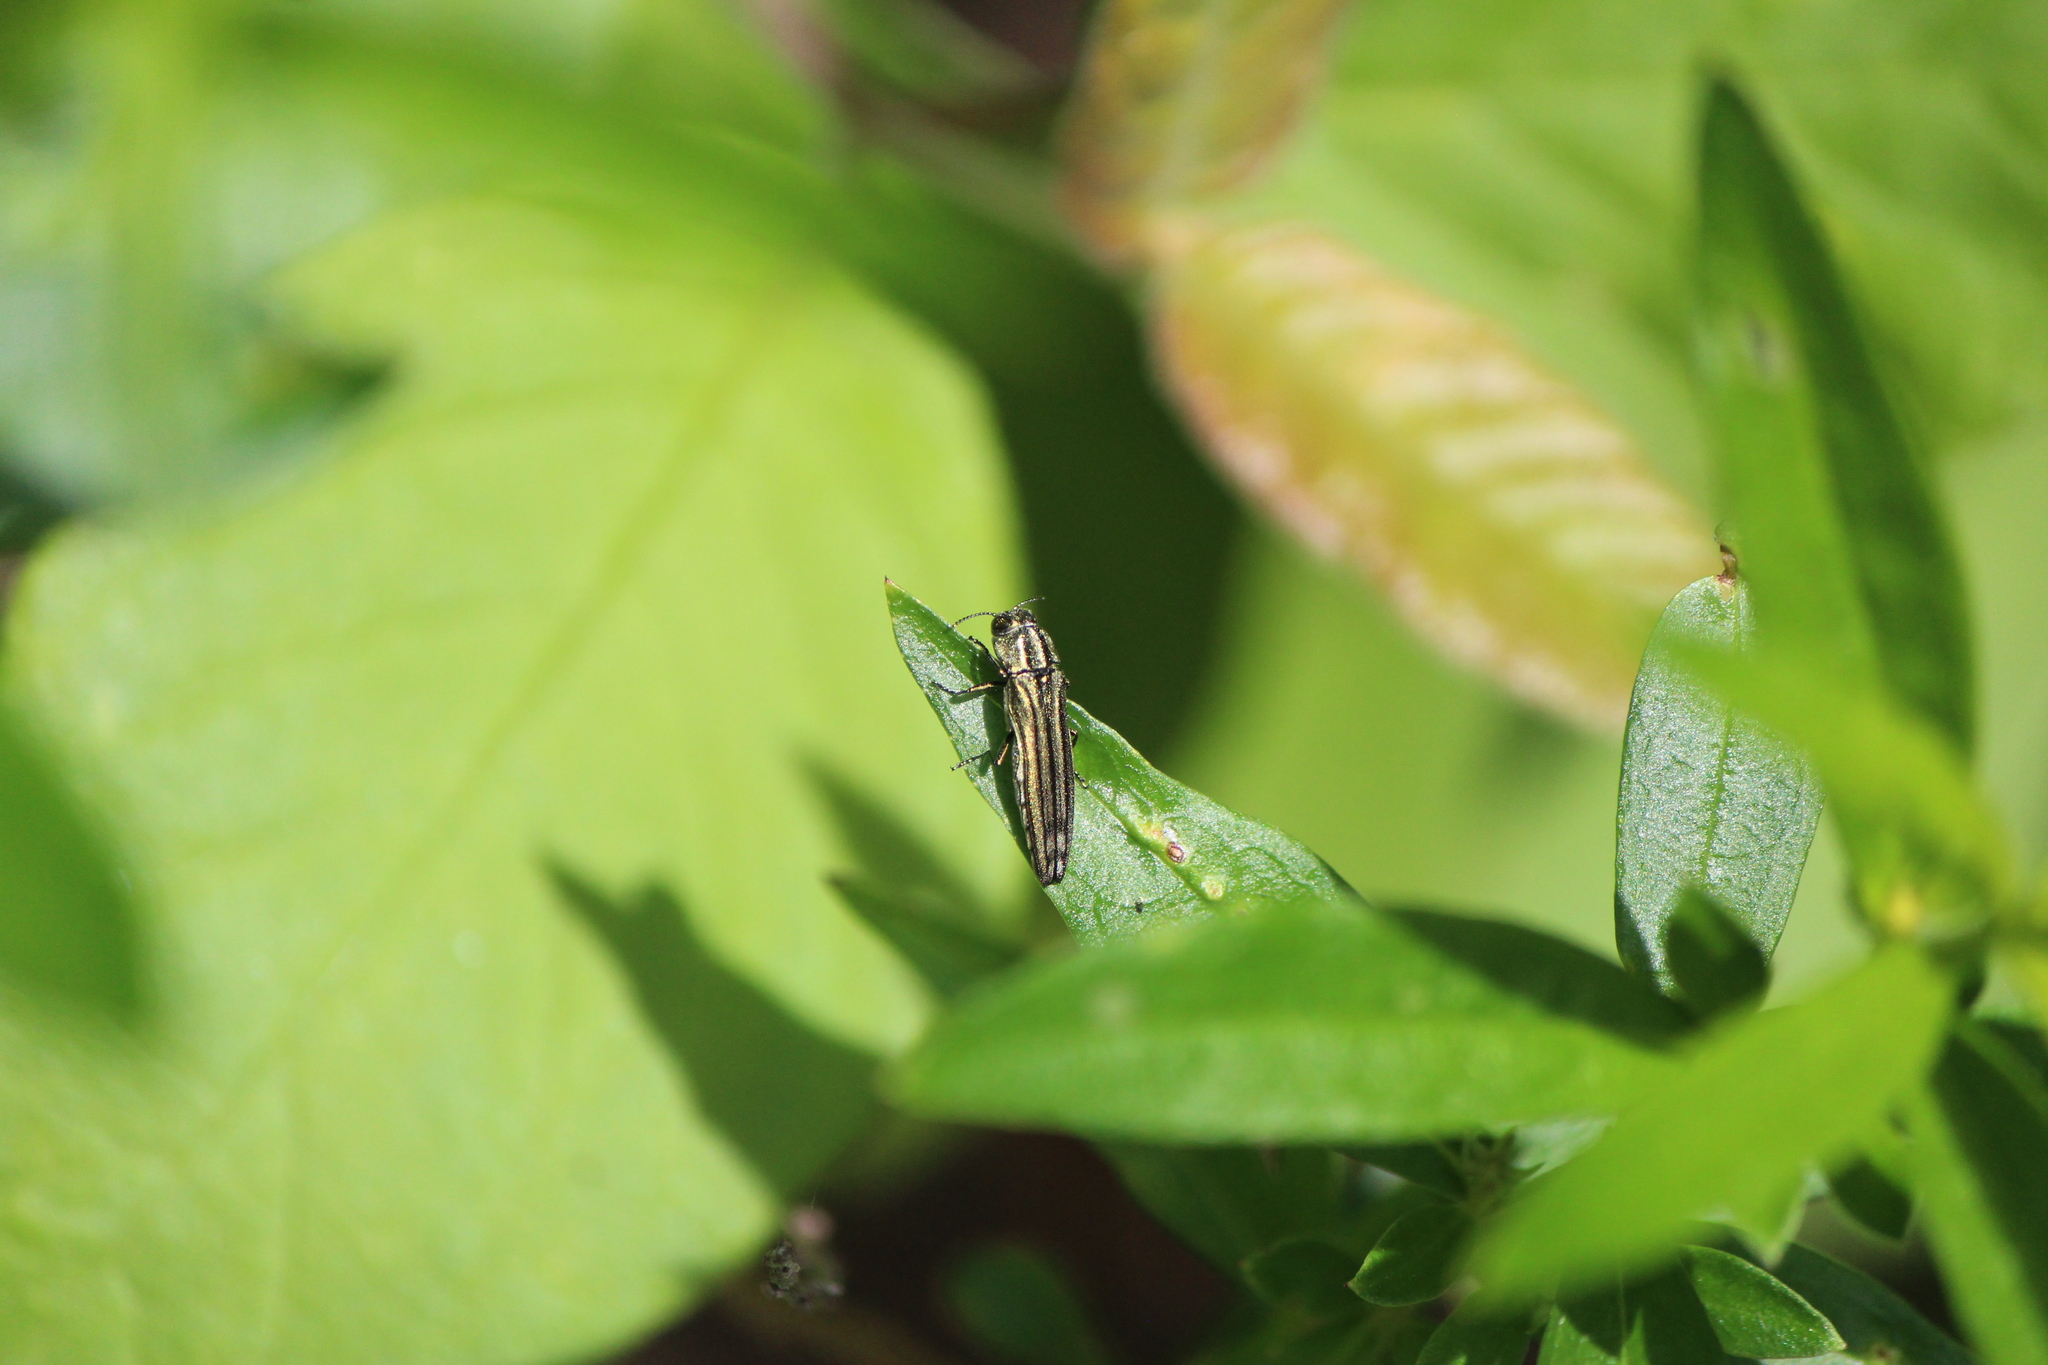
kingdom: Animalia
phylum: Arthropoda
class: Insecta
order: Coleoptera
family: Buprestidae
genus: Agrilus
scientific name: Agrilus aureus
